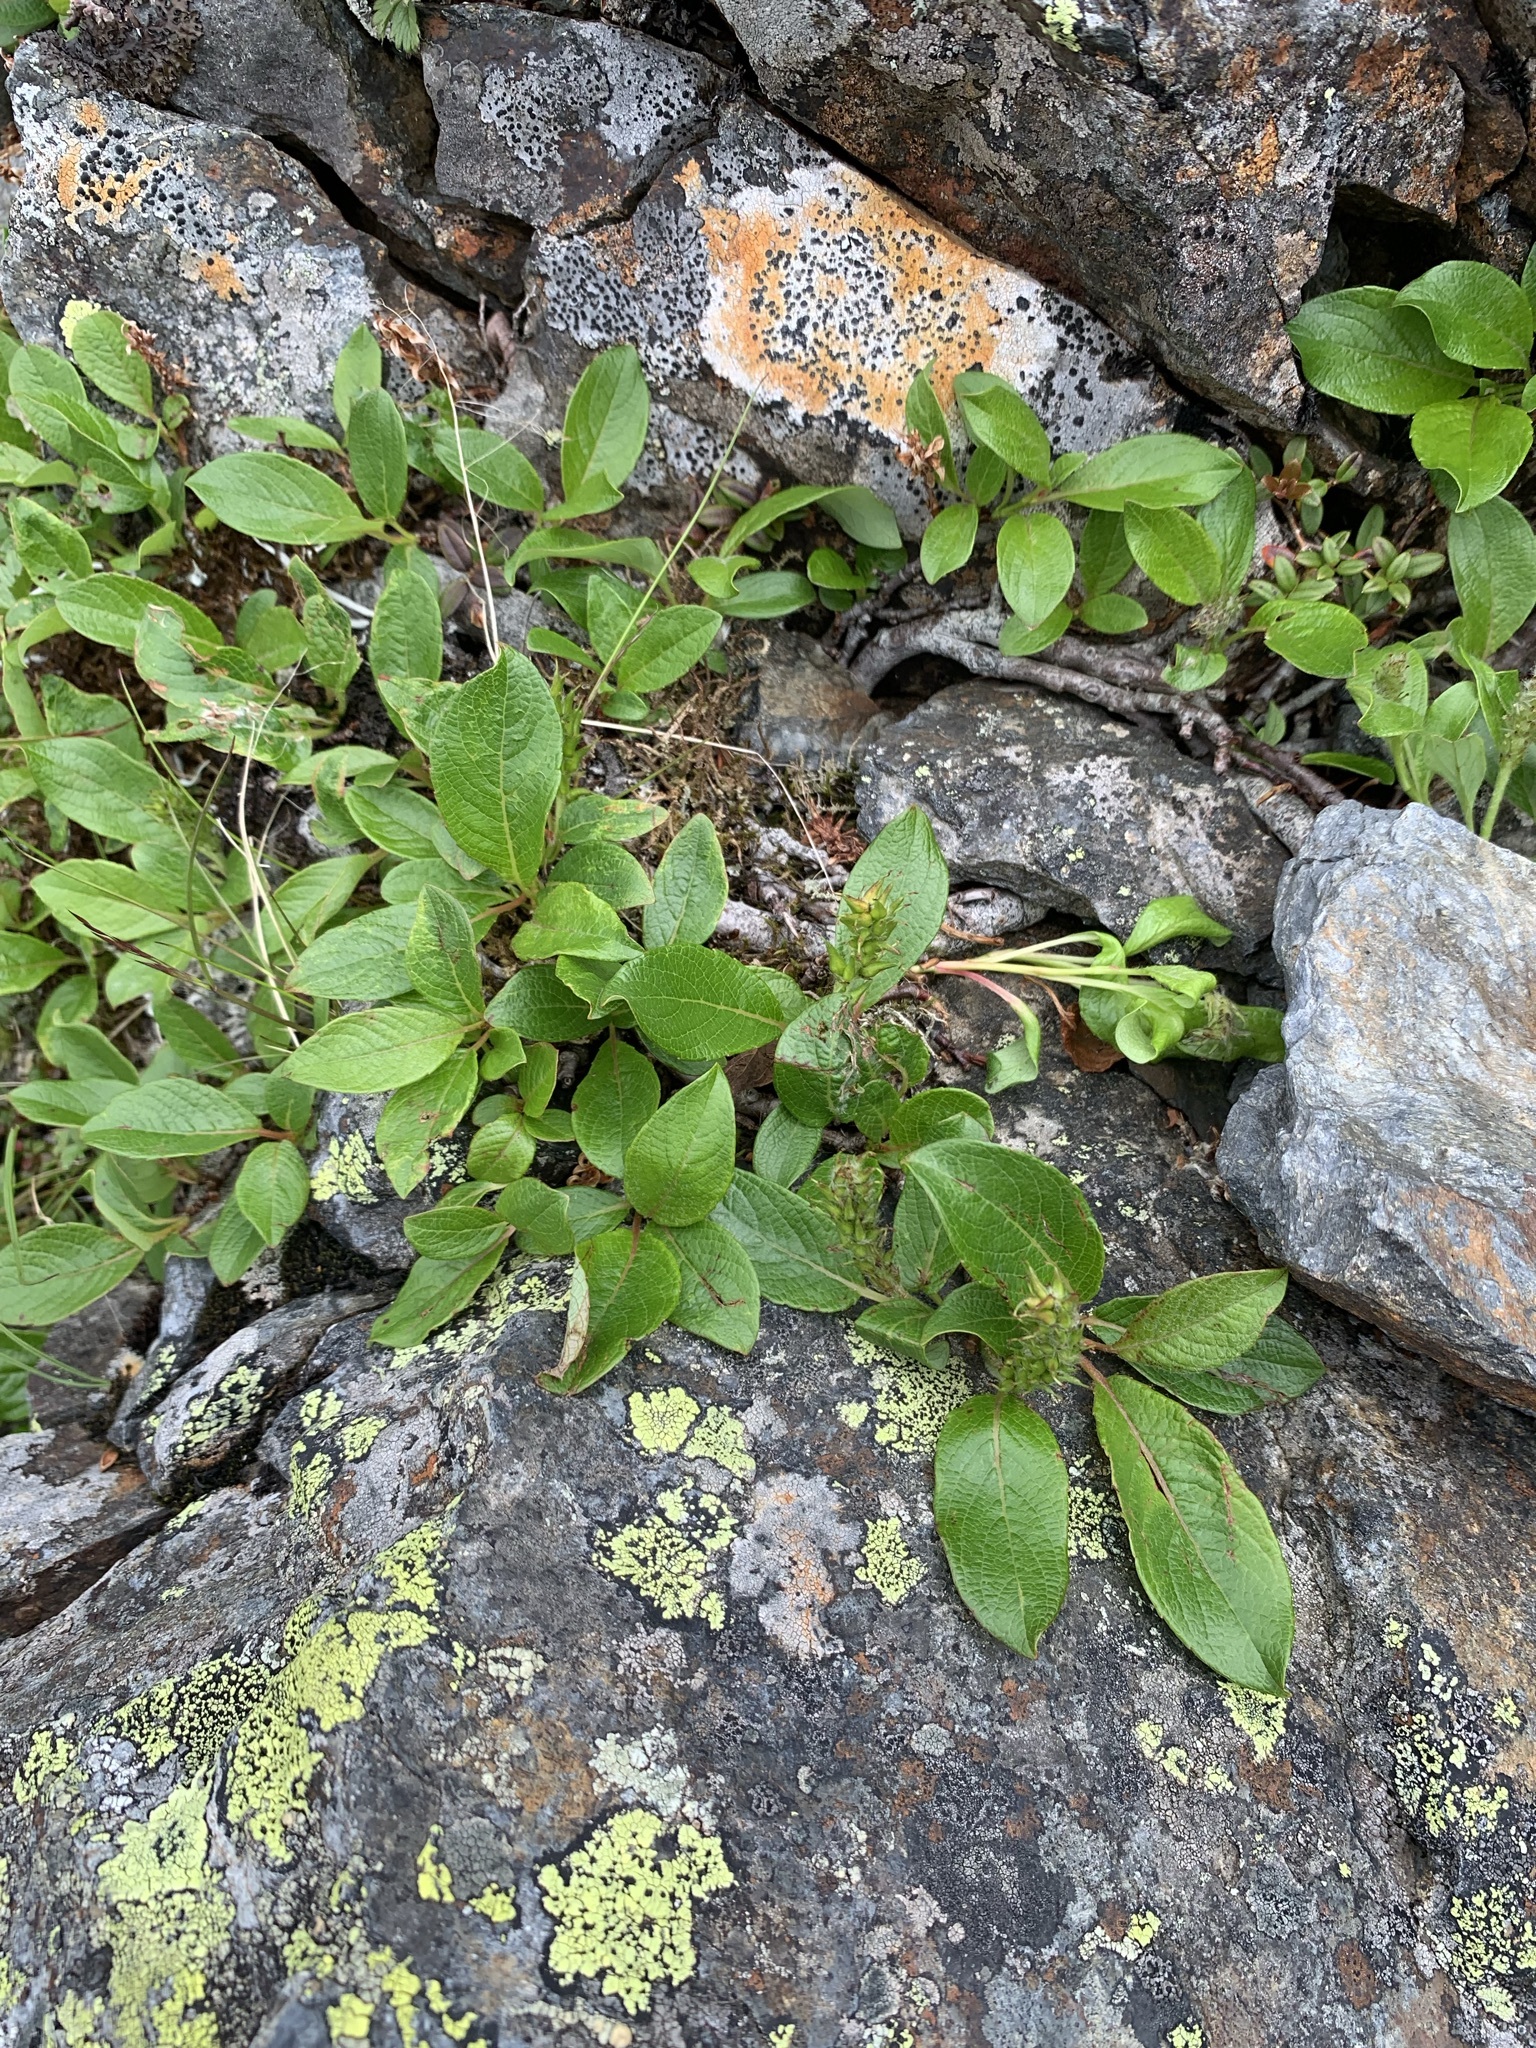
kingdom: Plantae
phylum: Tracheophyta
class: Magnoliopsida
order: Malpighiales
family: Salicaceae
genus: Salix
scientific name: Salix nakamurana
